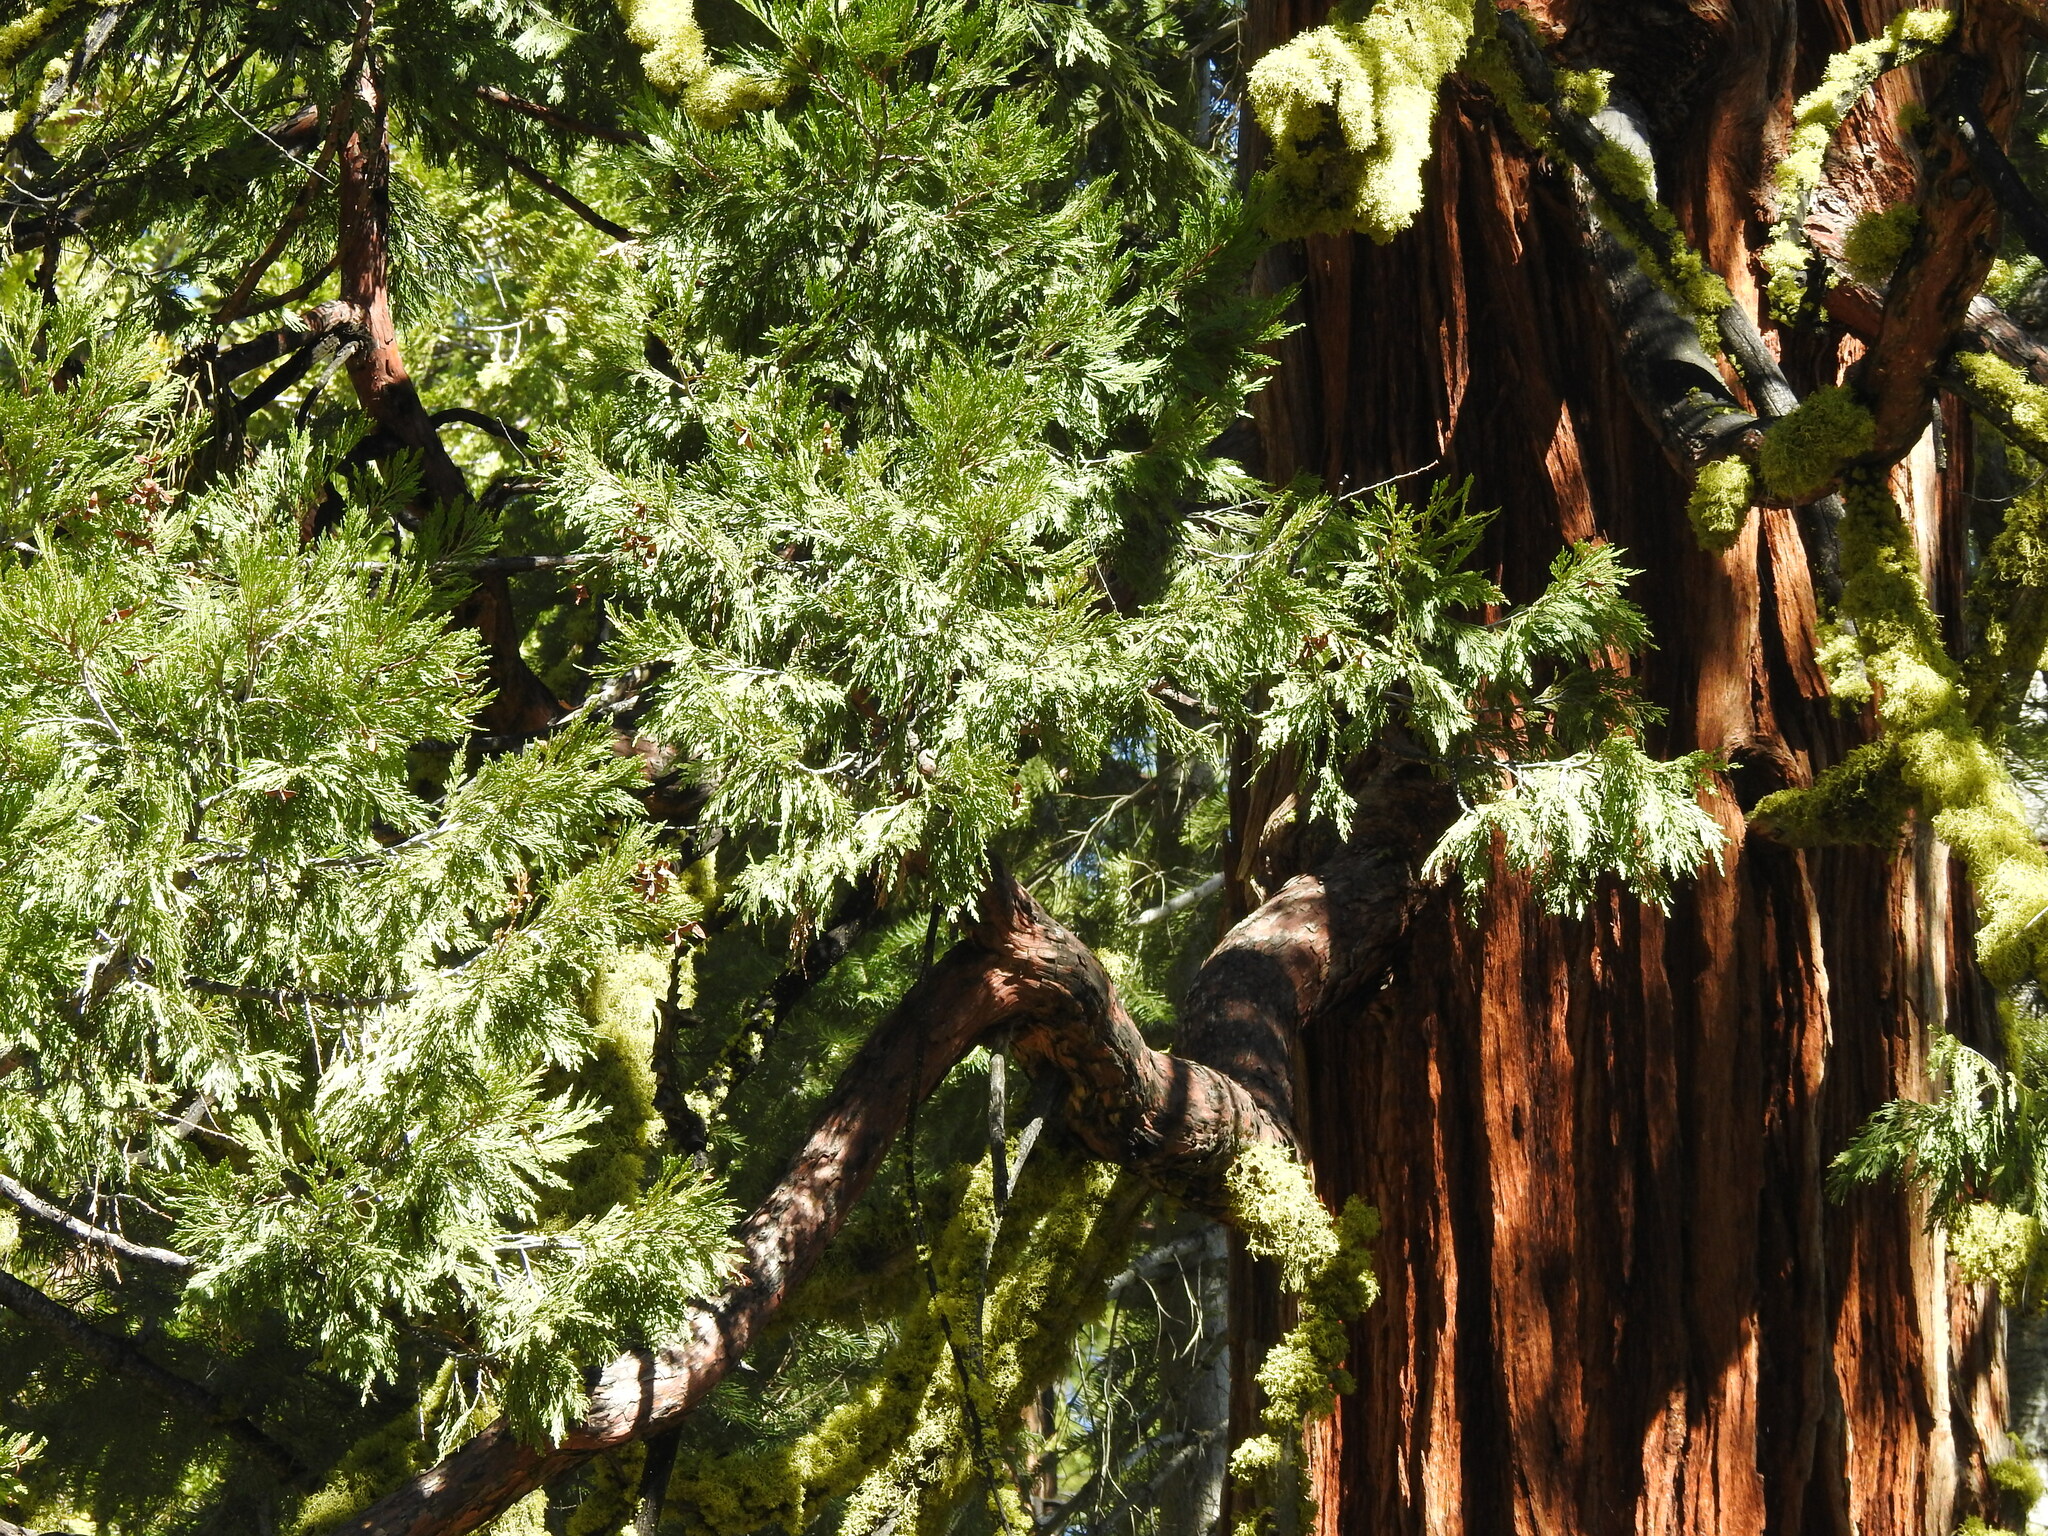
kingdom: Plantae
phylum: Tracheophyta
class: Pinopsida
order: Pinales
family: Cupressaceae
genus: Calocedrus
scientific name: Calocedrus decurrens
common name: Californian incense-cedar
